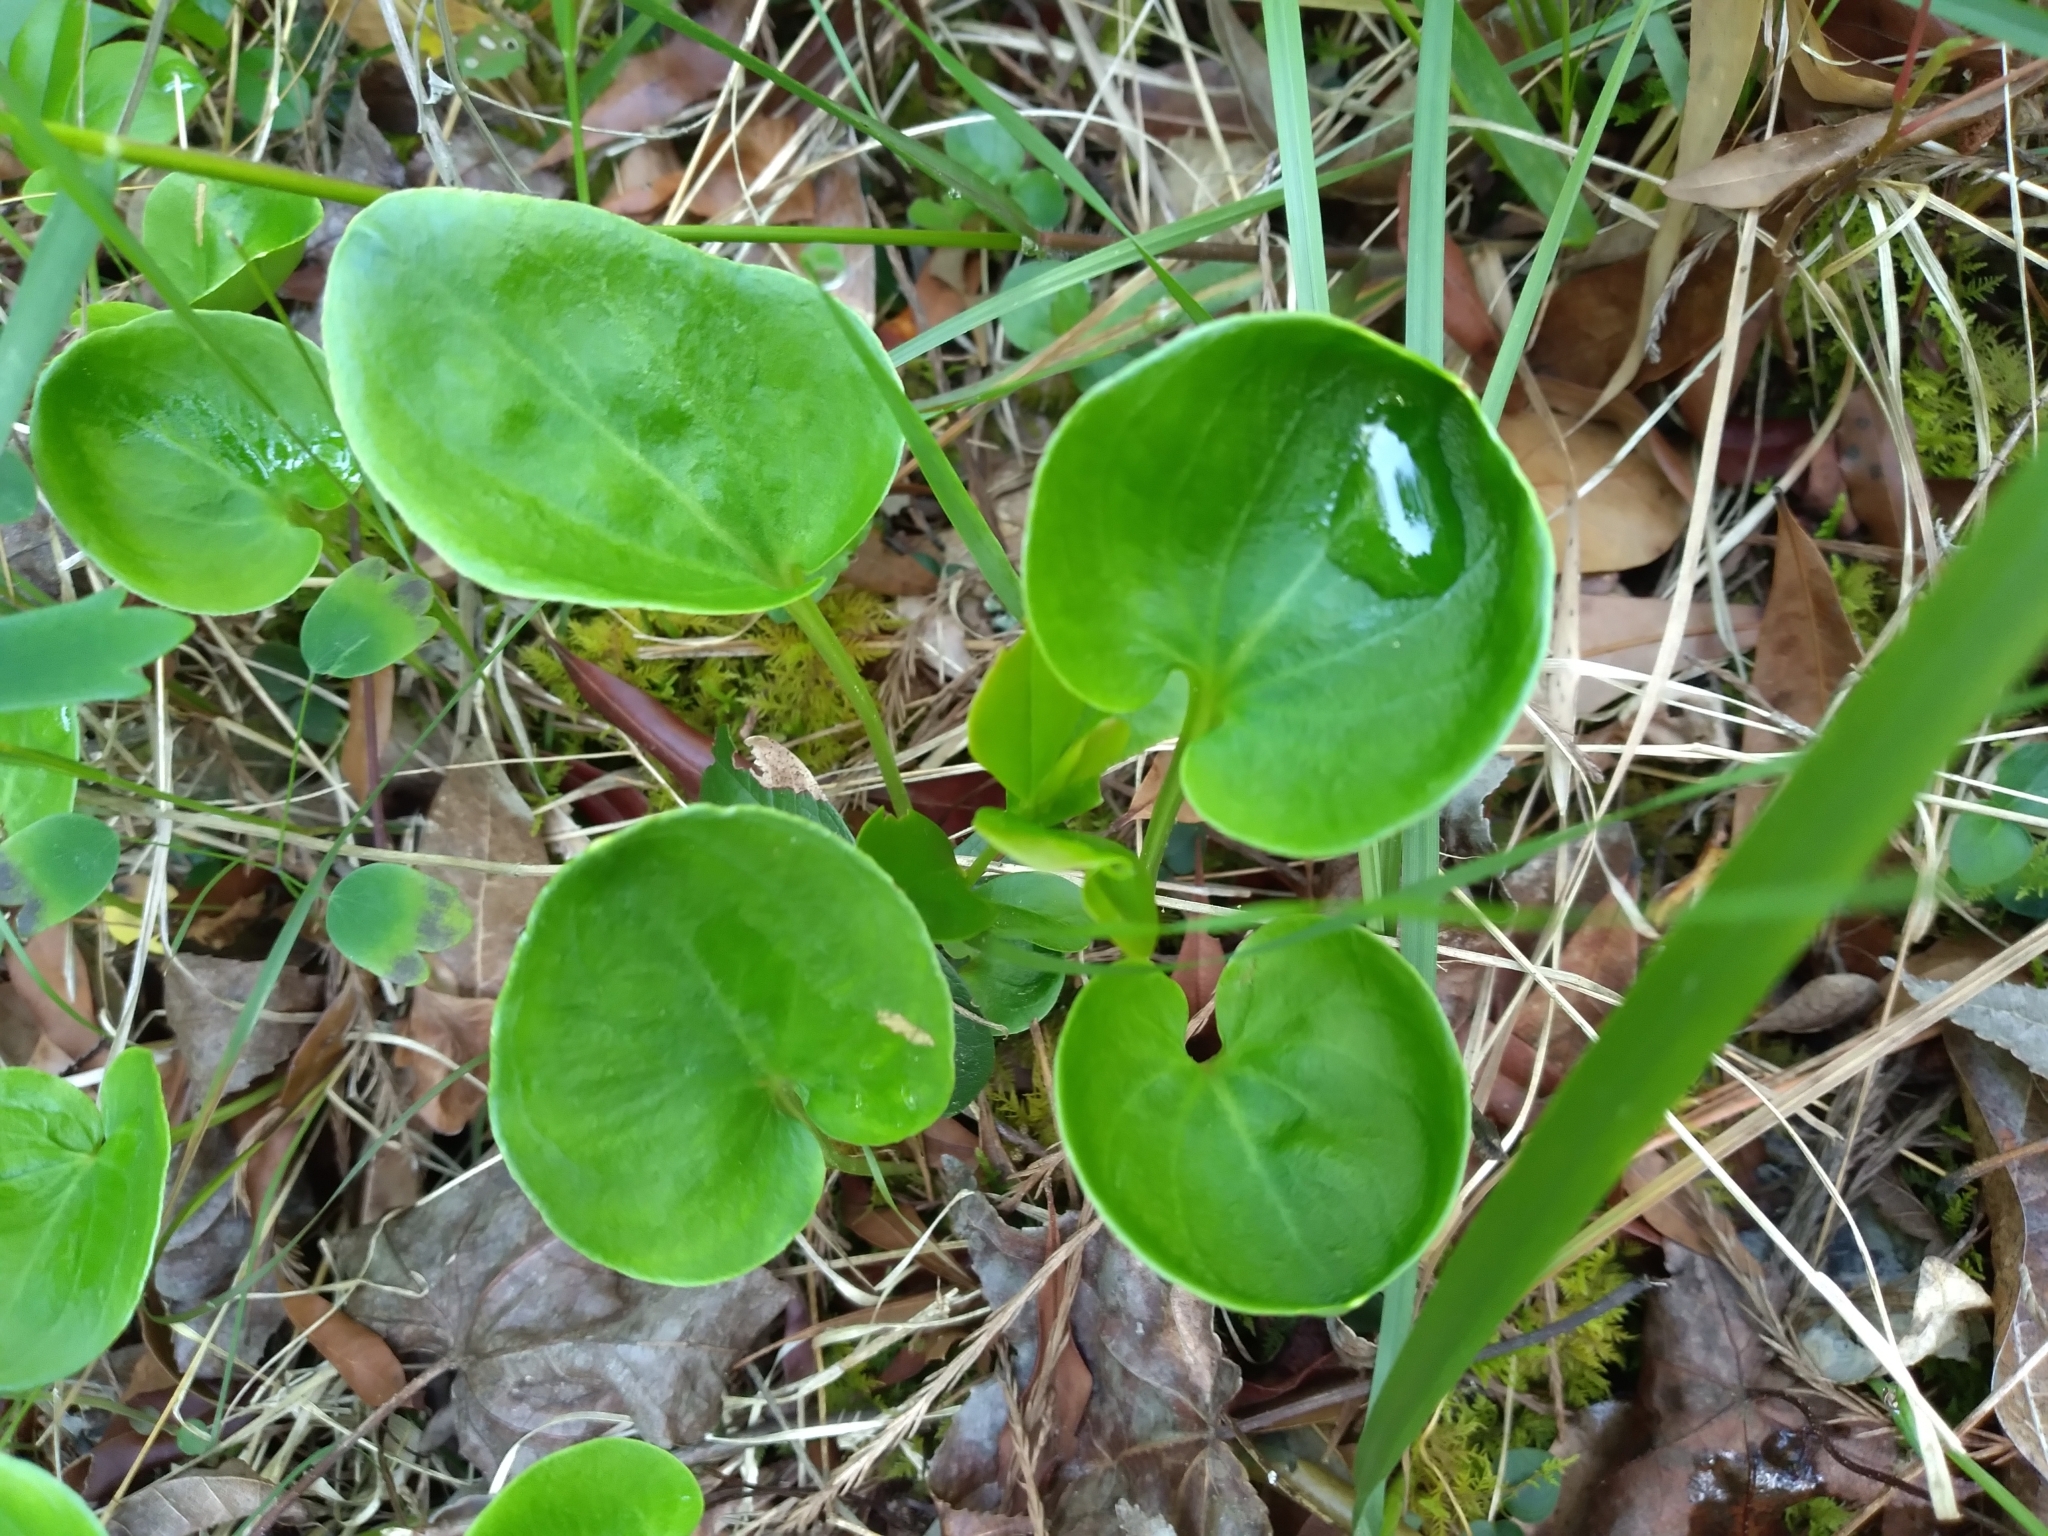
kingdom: Plantae
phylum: Tracheophyta
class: Magnoliopsida
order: Celastrales
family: Parnassiaceae
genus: Parnassia
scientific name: Parnassia caroliniana
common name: Carolina grass of parnassus
